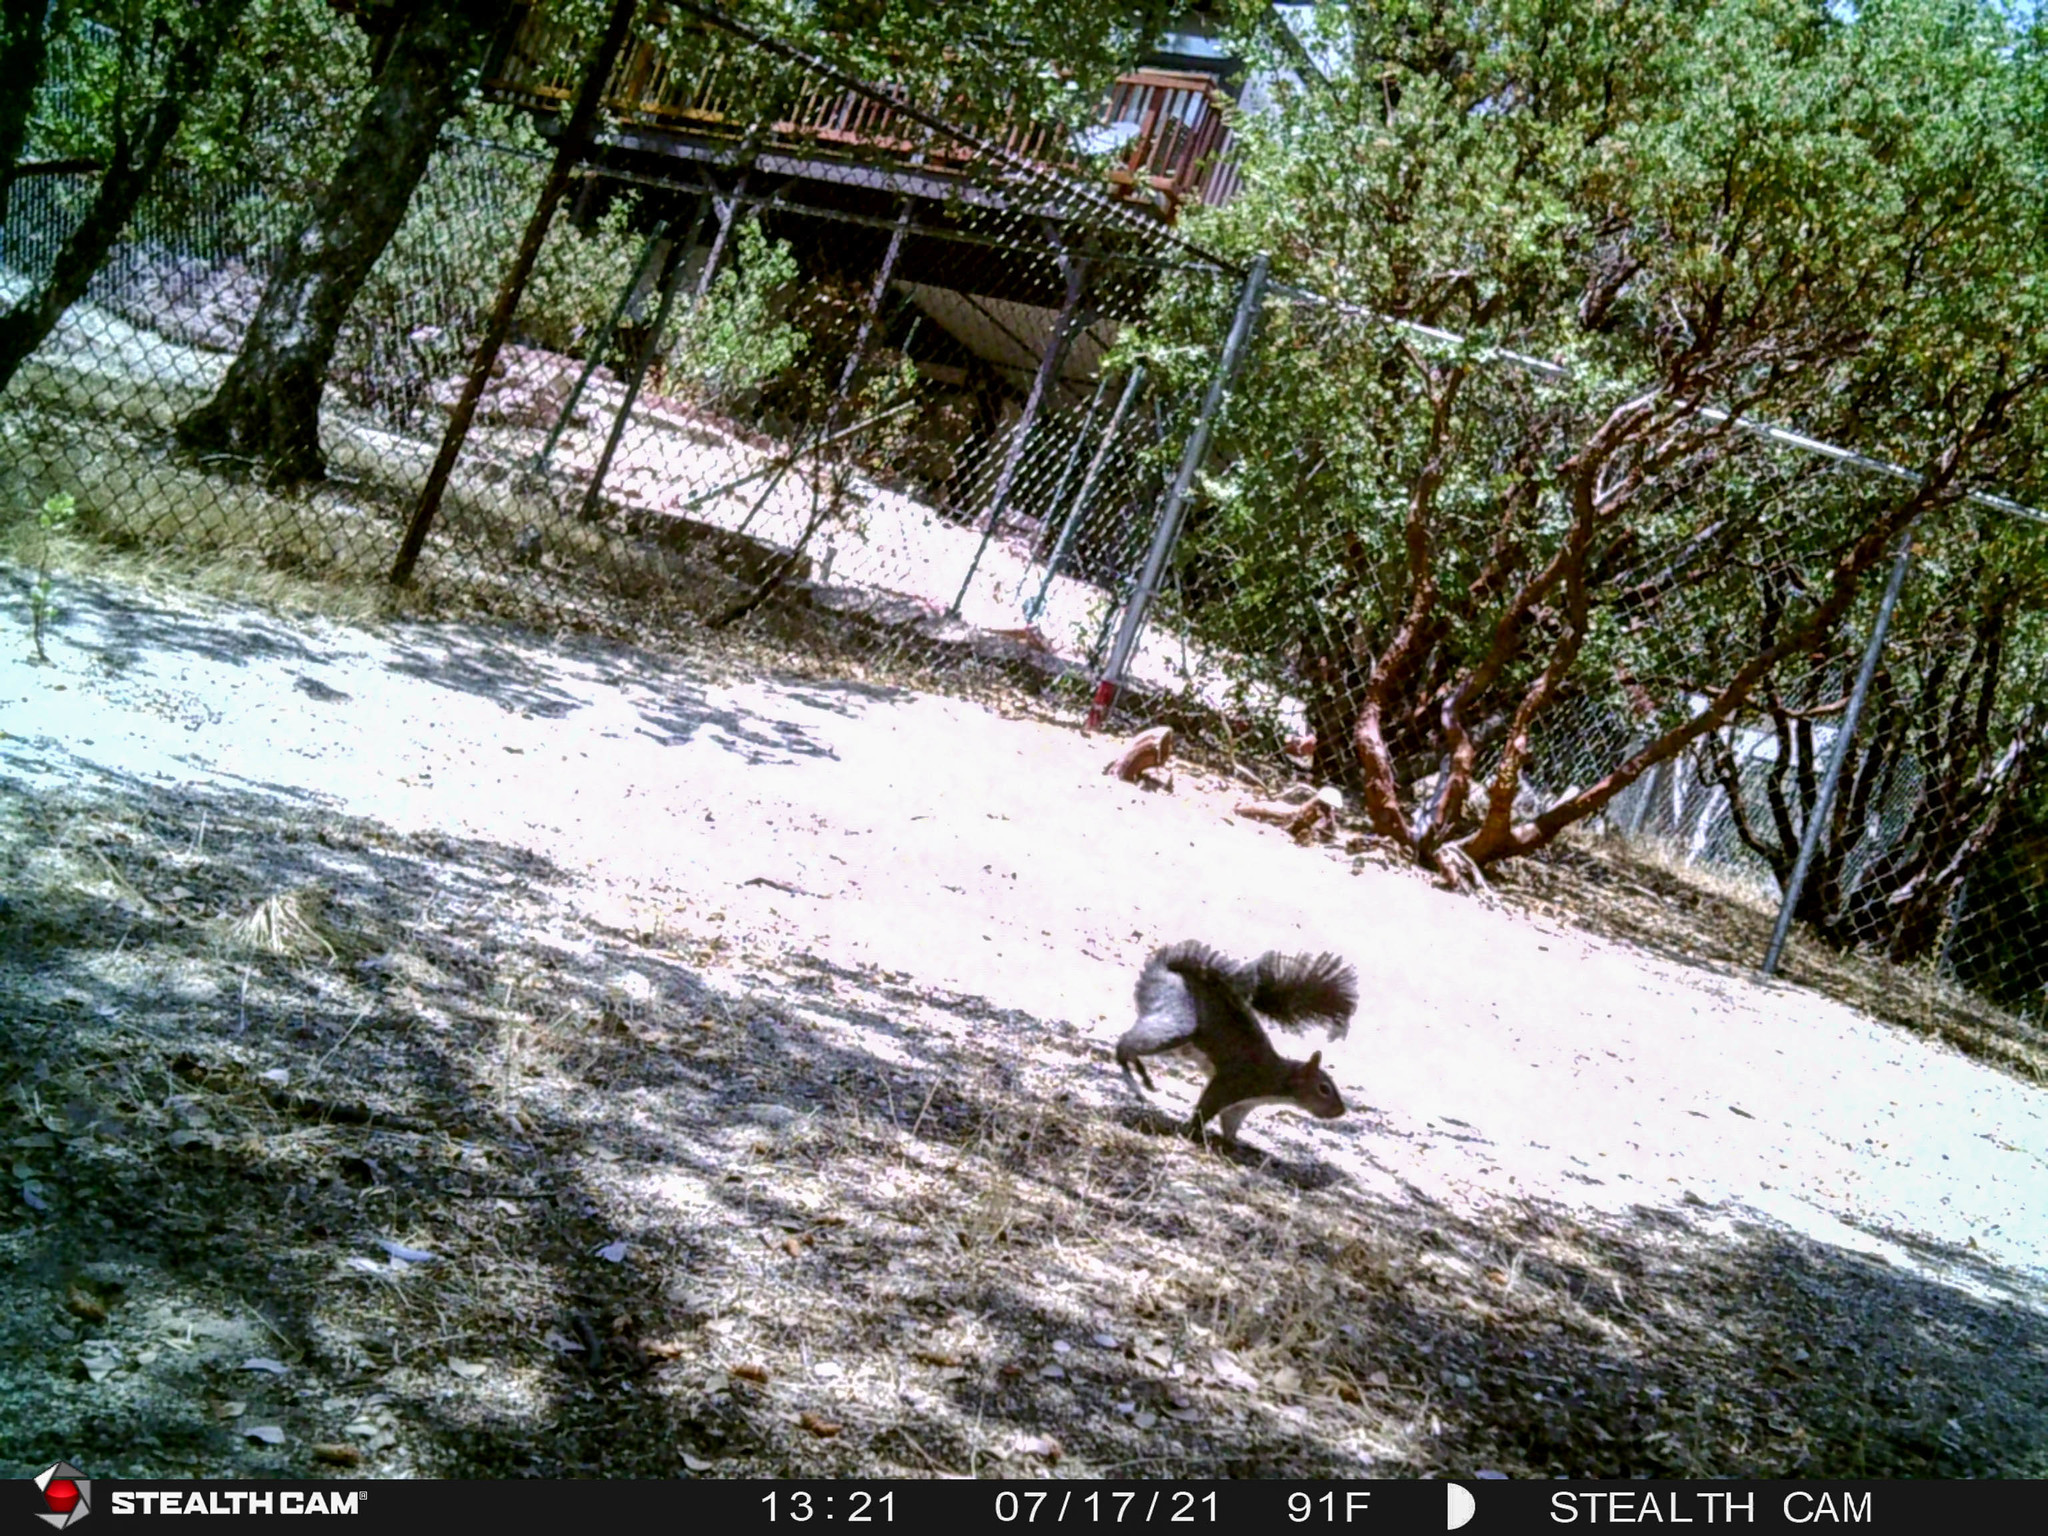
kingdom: Animalia
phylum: Chordata
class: Mammalia
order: Rodentia
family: Sciuridae
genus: Sciurus
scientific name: Sciurus griseus
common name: Western gray squirrel
